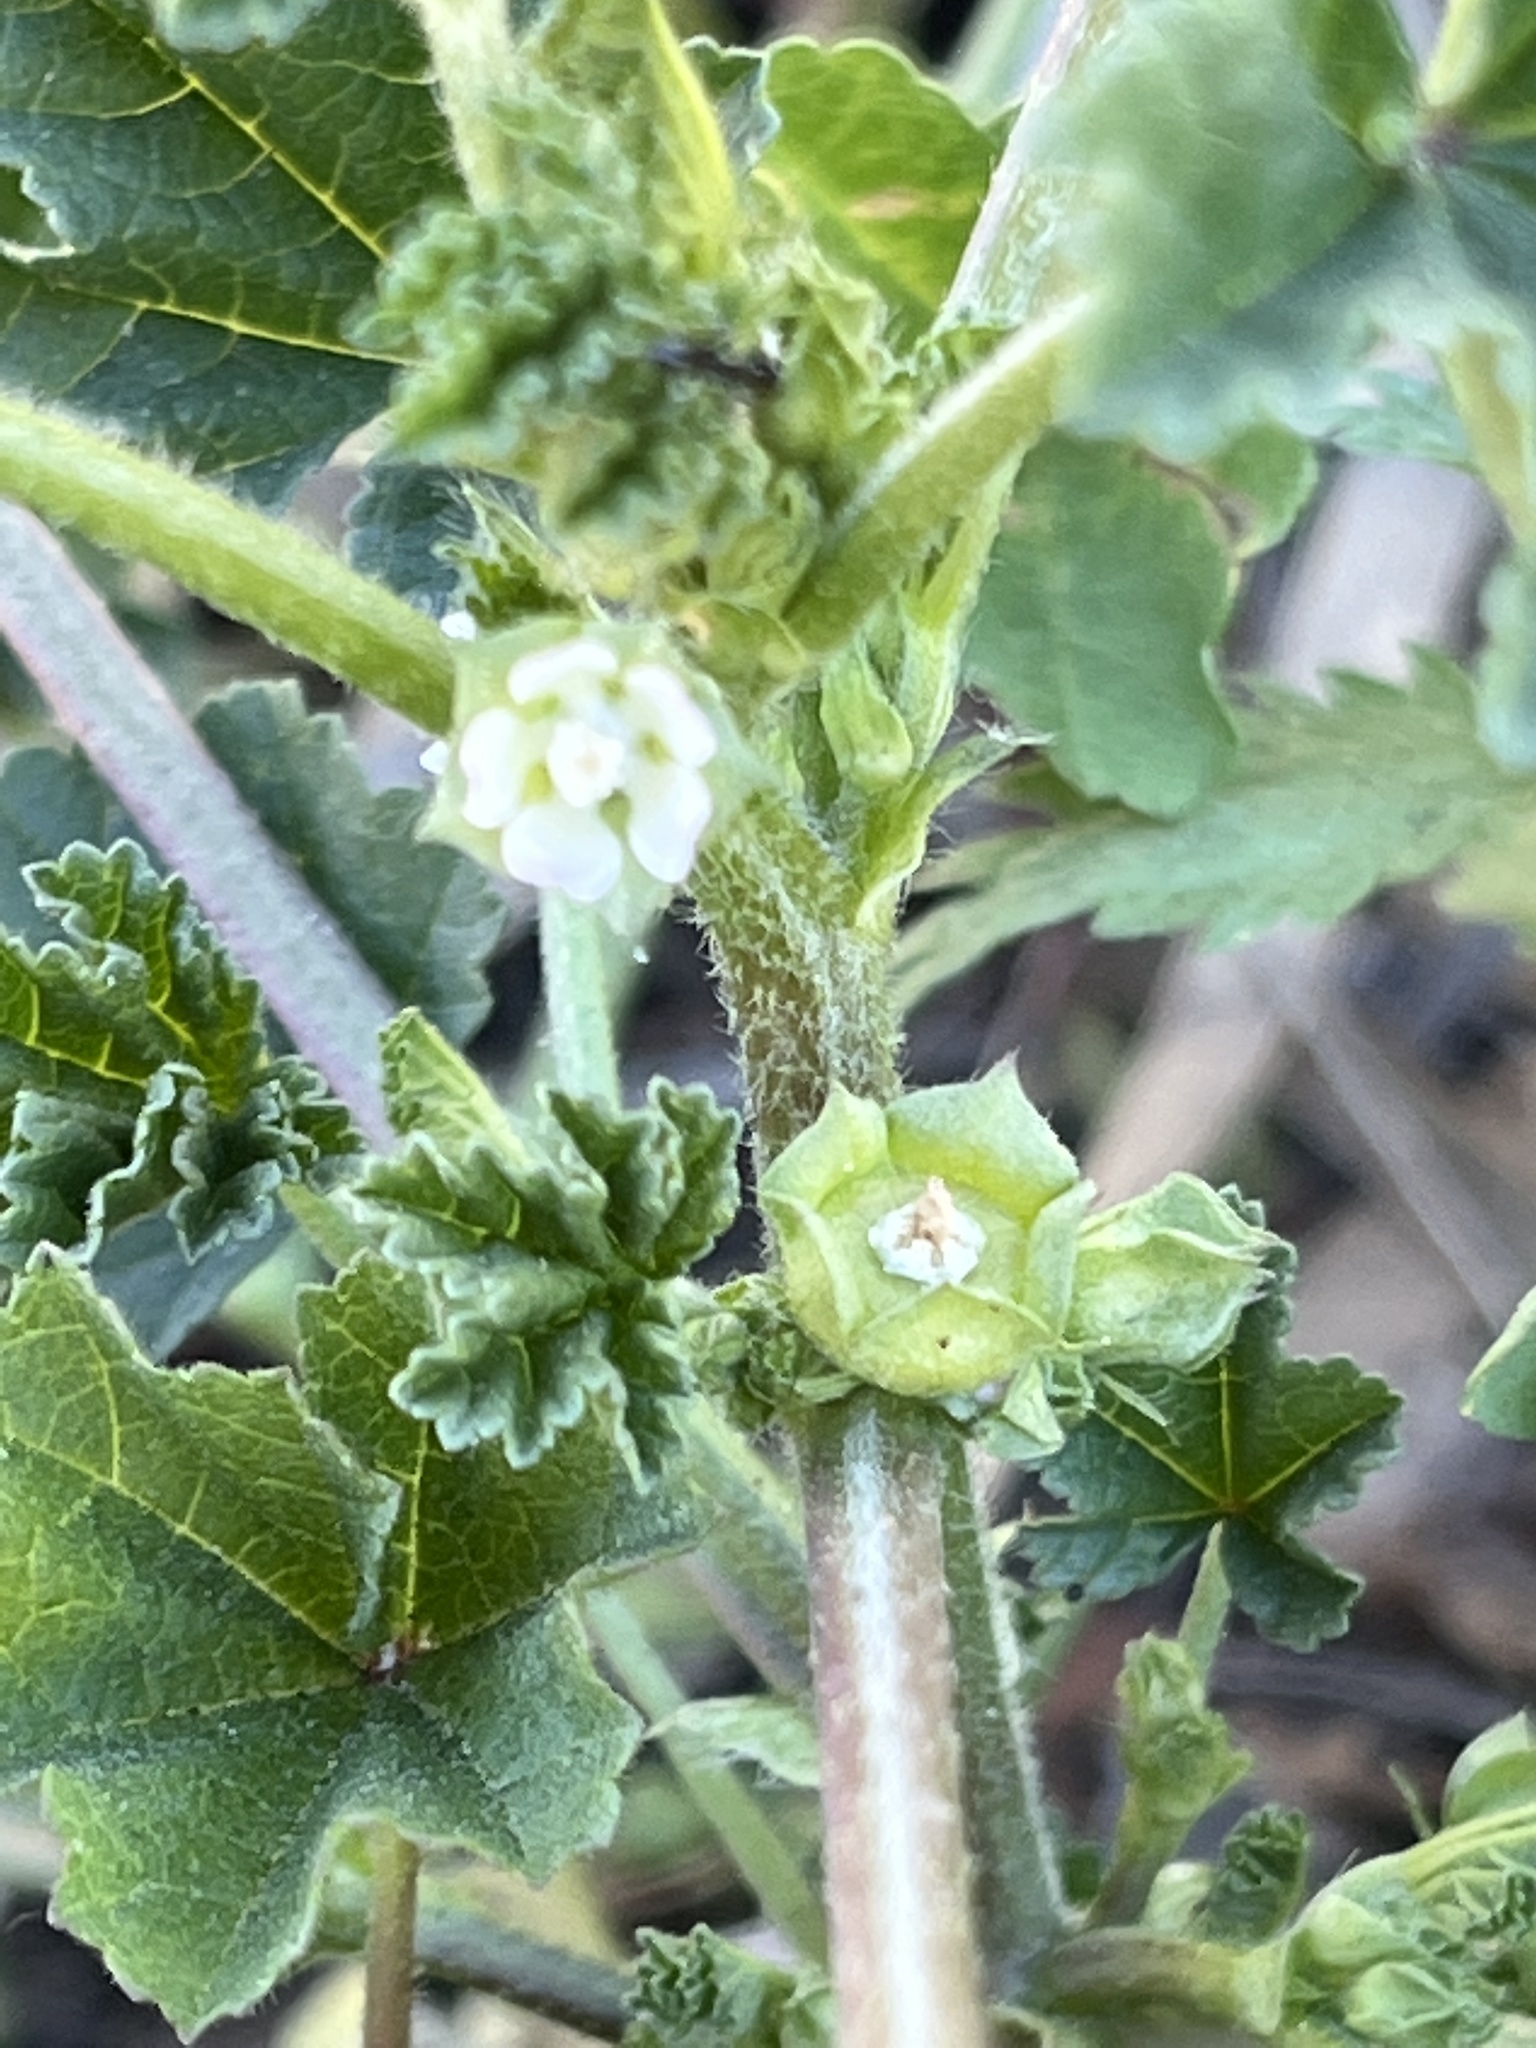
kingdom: Plantae
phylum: Tracheophyta
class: Magnoliopsida
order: Malvales
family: Malvaceae
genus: Malva
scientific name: Malva parviflora
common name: Least mallow
